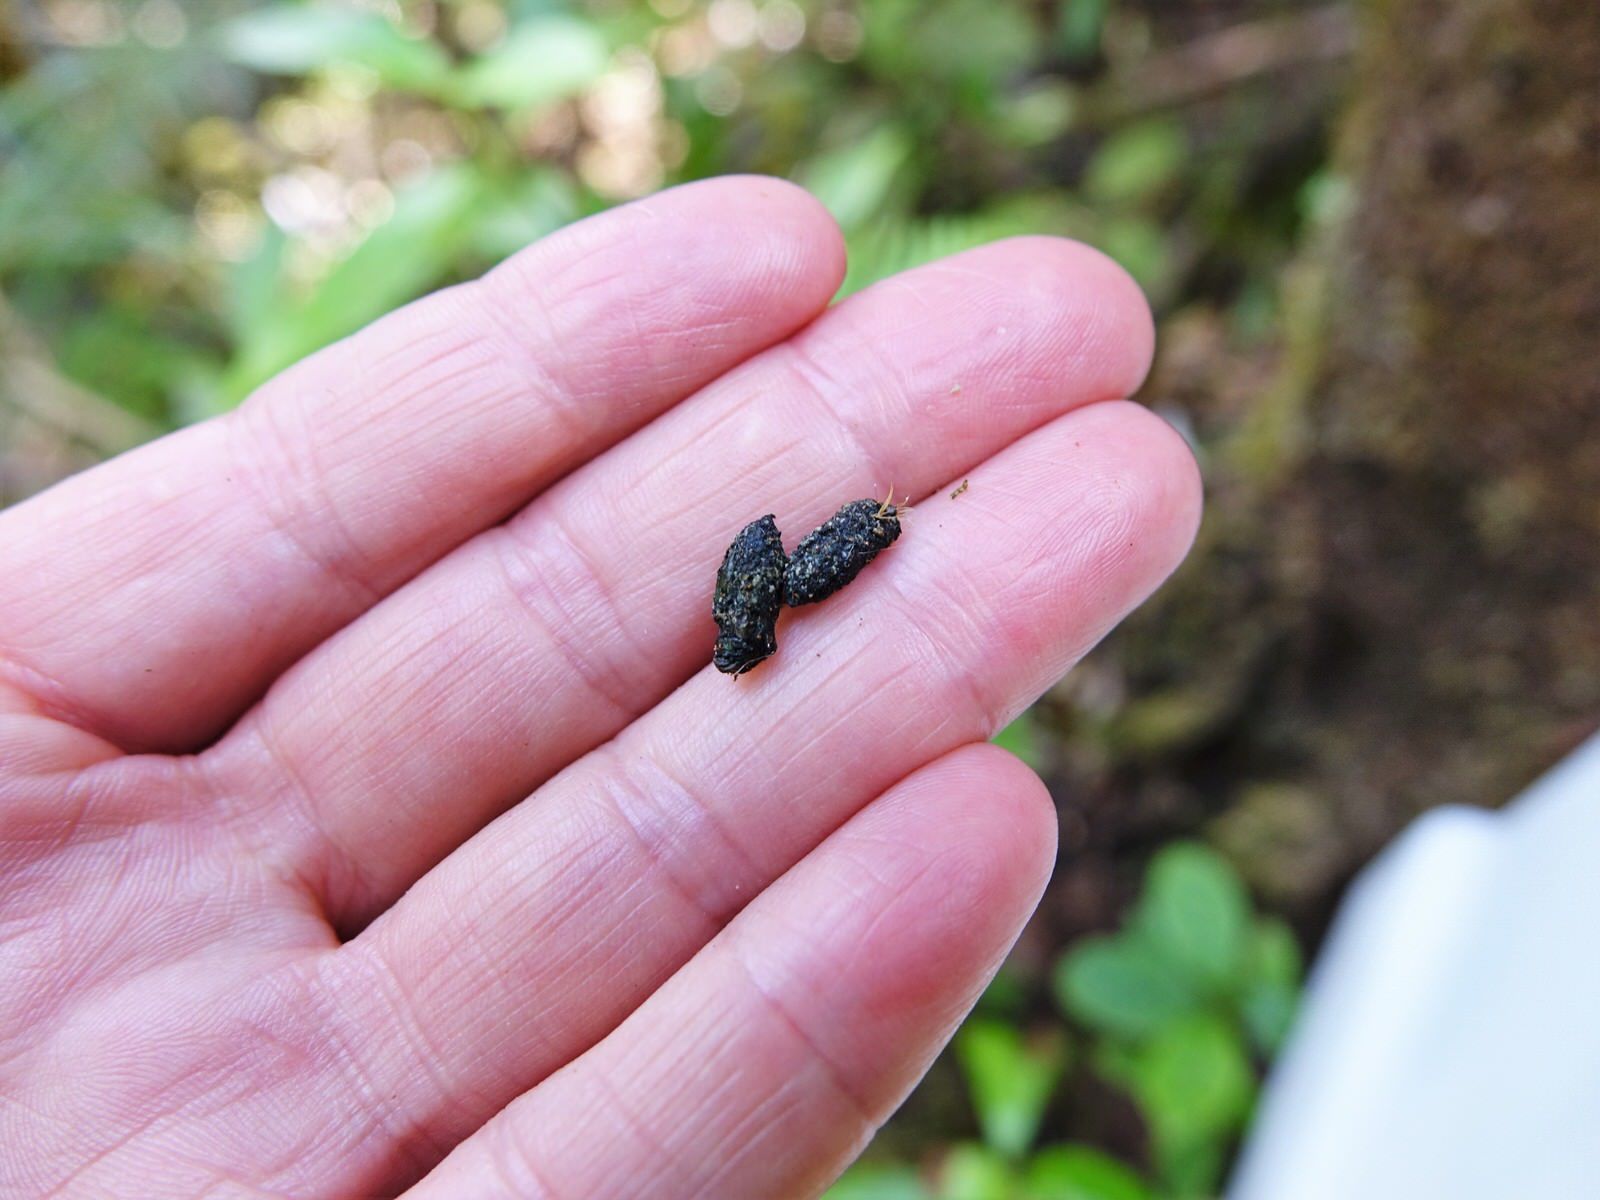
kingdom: Animalia
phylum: Chordata
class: Mammalia
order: Rodentia
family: Muridae
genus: Rattus
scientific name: Rattus rattus
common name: Black rat
